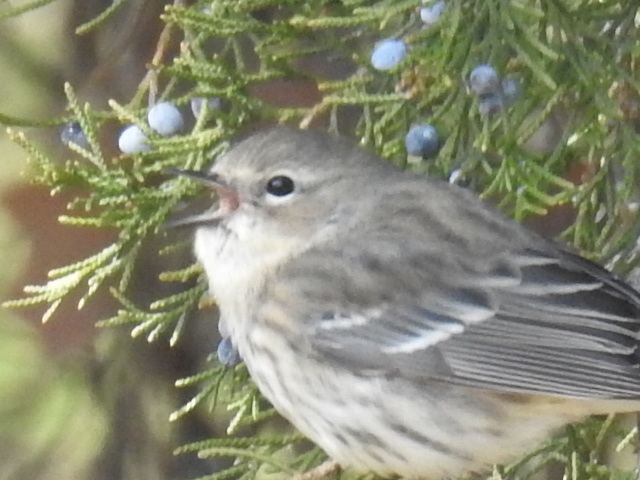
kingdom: Animalia
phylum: Chordata
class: Aves
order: Passeriformes
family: Parulidae
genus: Setophaga
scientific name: Setophaga coronata
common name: Myrtle warbler
